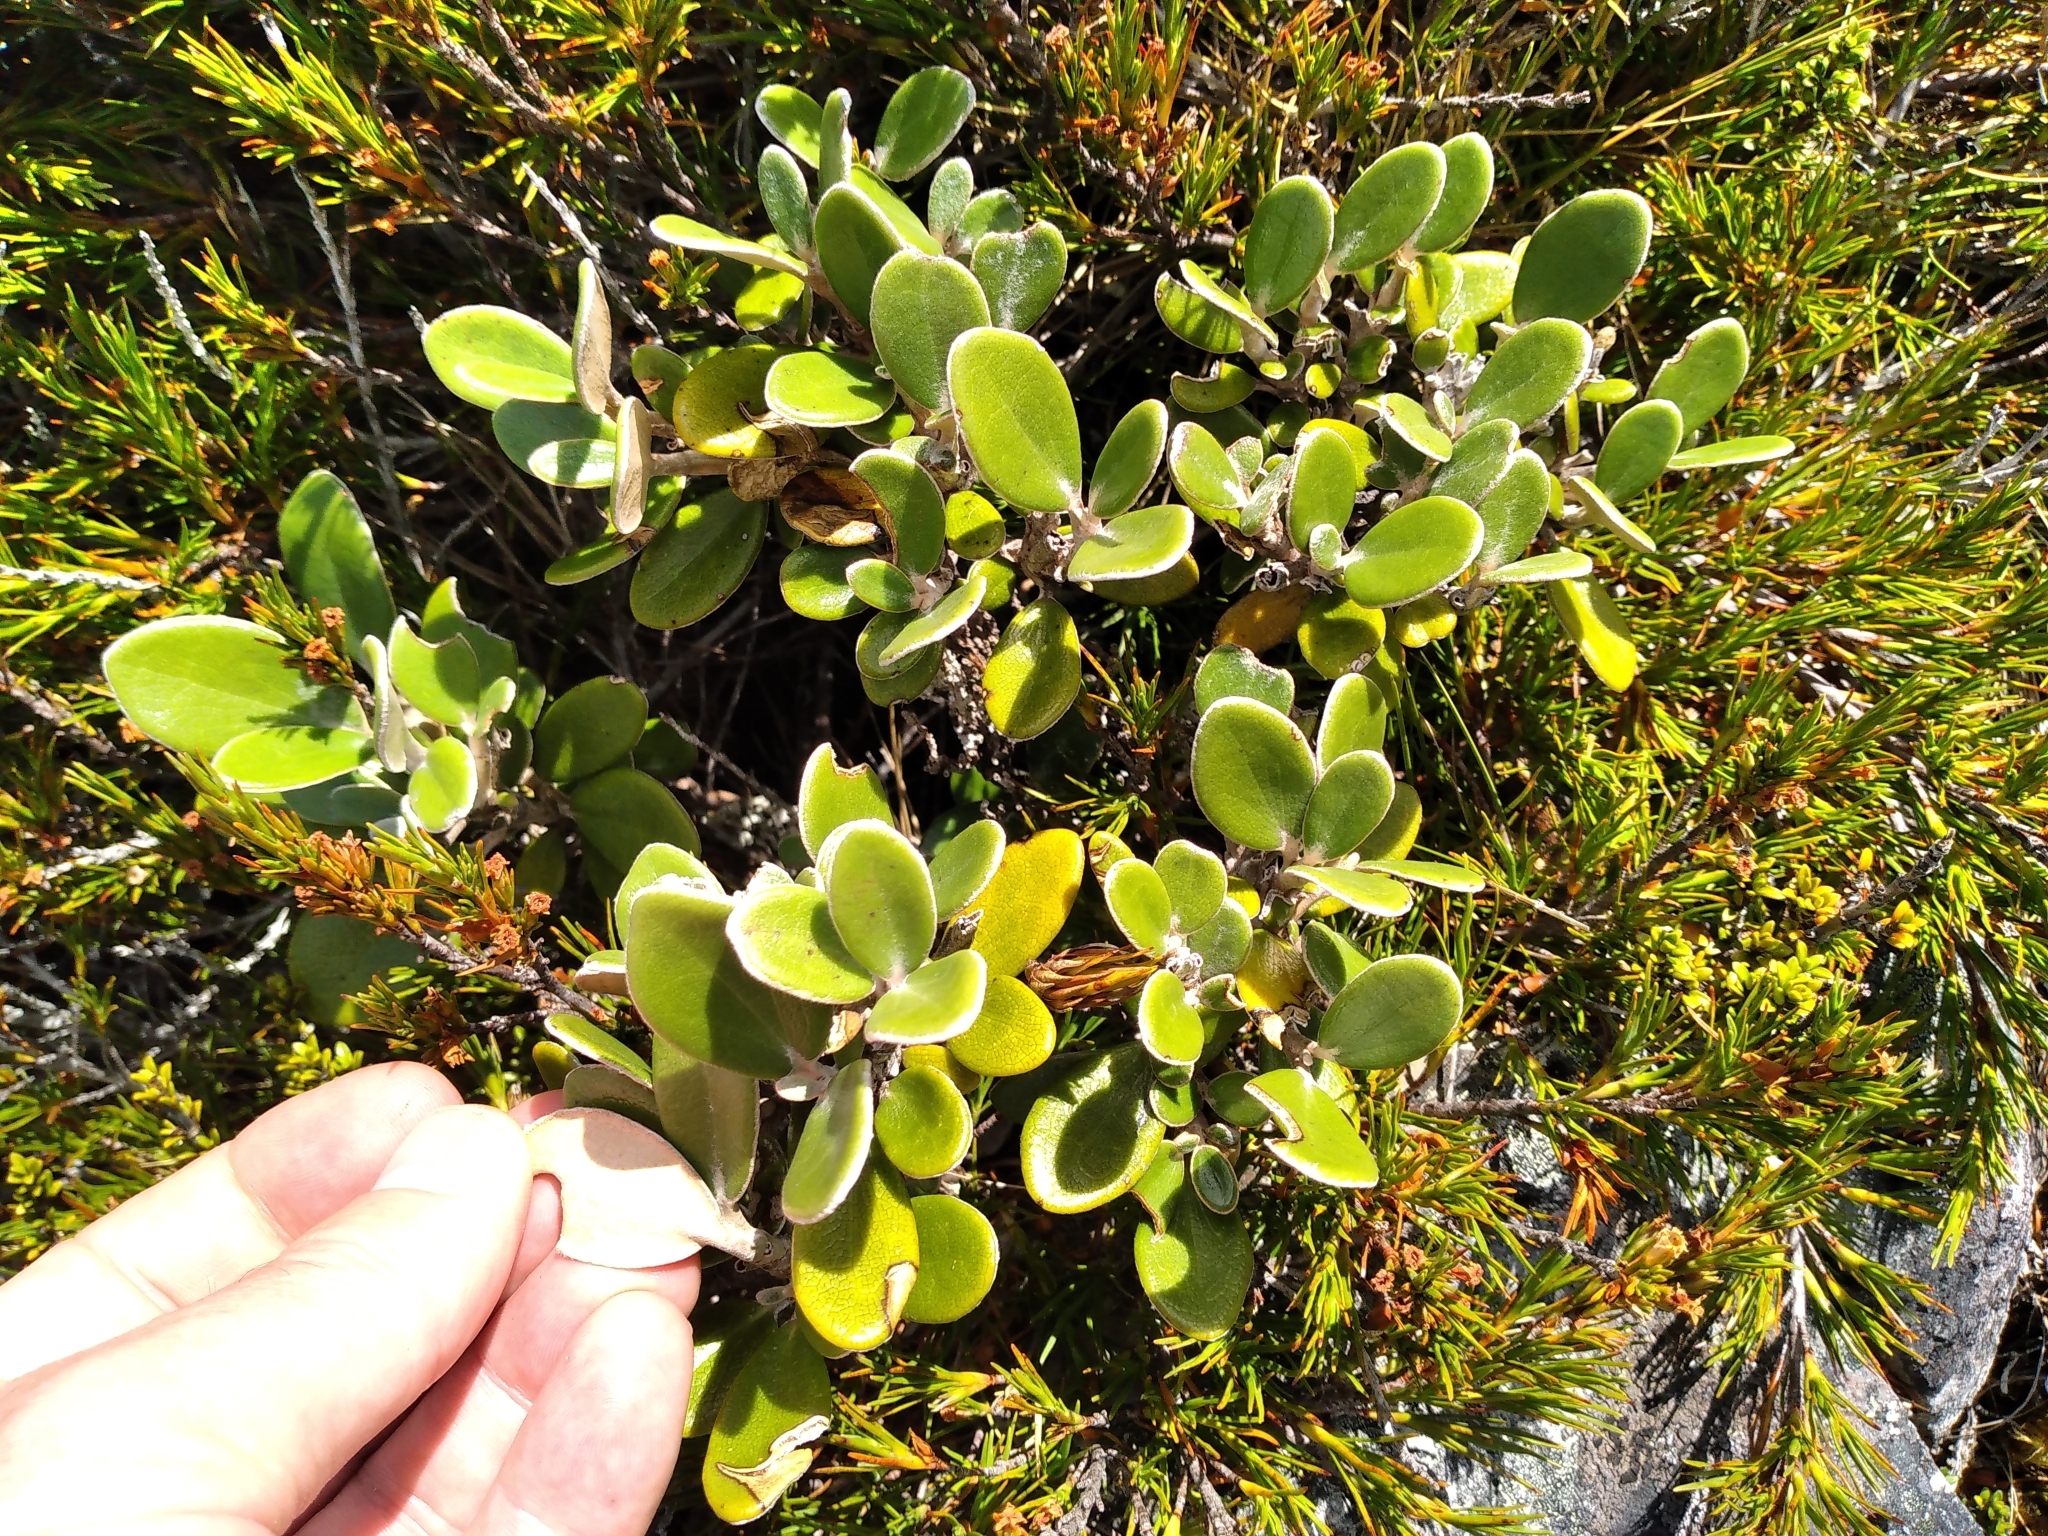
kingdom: Plantae
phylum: Tracheophyta
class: Magnoliopsida
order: Asterales
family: Asteraceae
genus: Brachyglottis
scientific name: Brachyglottis bidwillii
